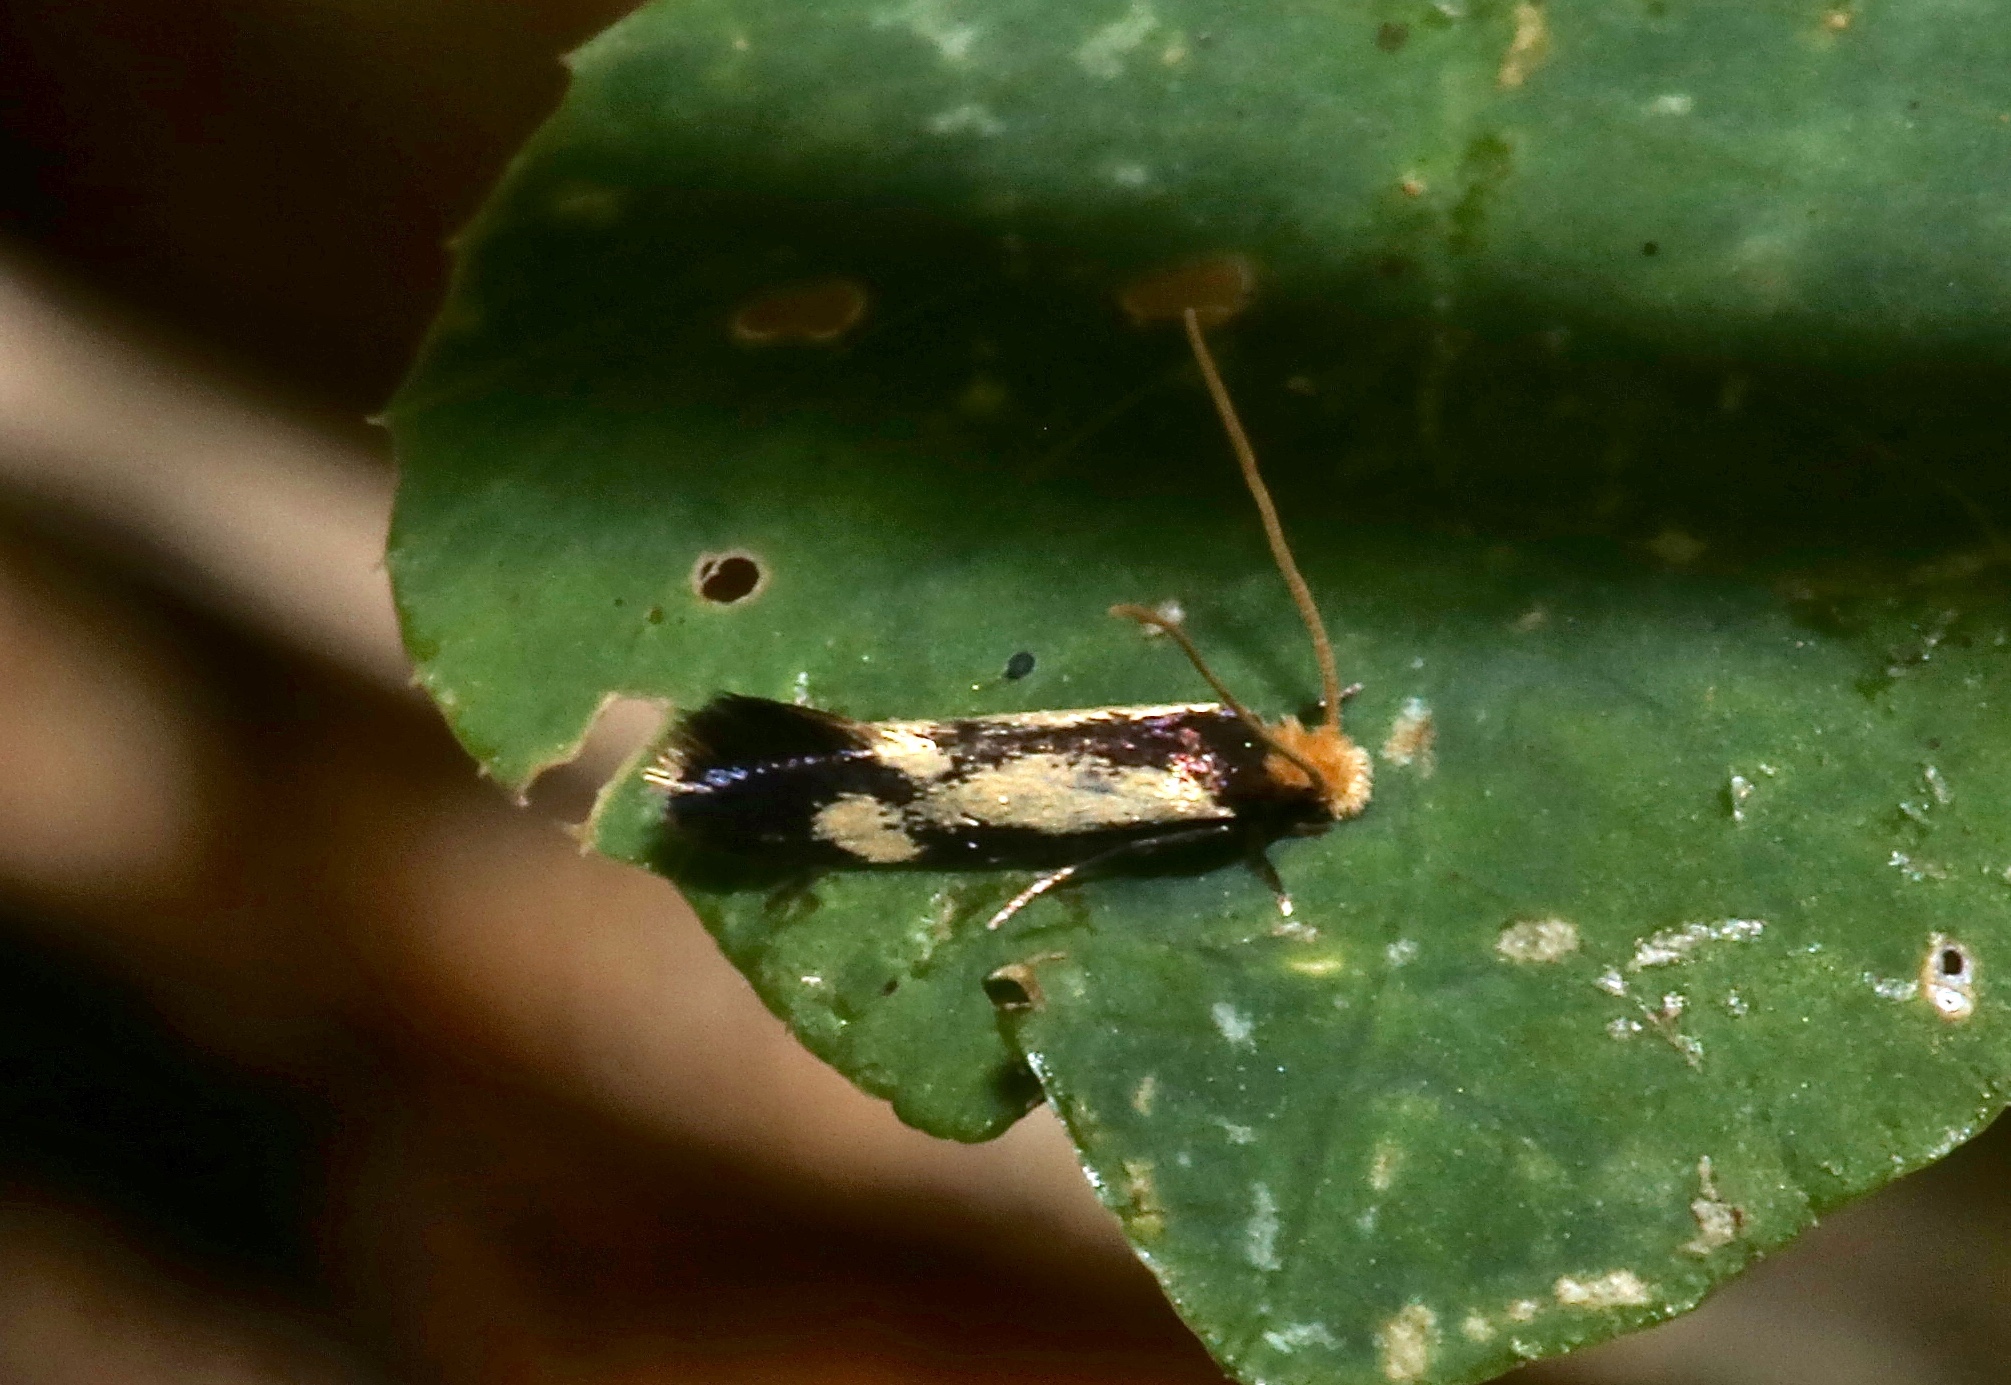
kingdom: Animalia
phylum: Arthropoda
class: Insecta
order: Lepidoptera
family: Meessiidae
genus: Isocorypha
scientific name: Isocorypha mediostriatella
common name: Old gold isocorypha moth
